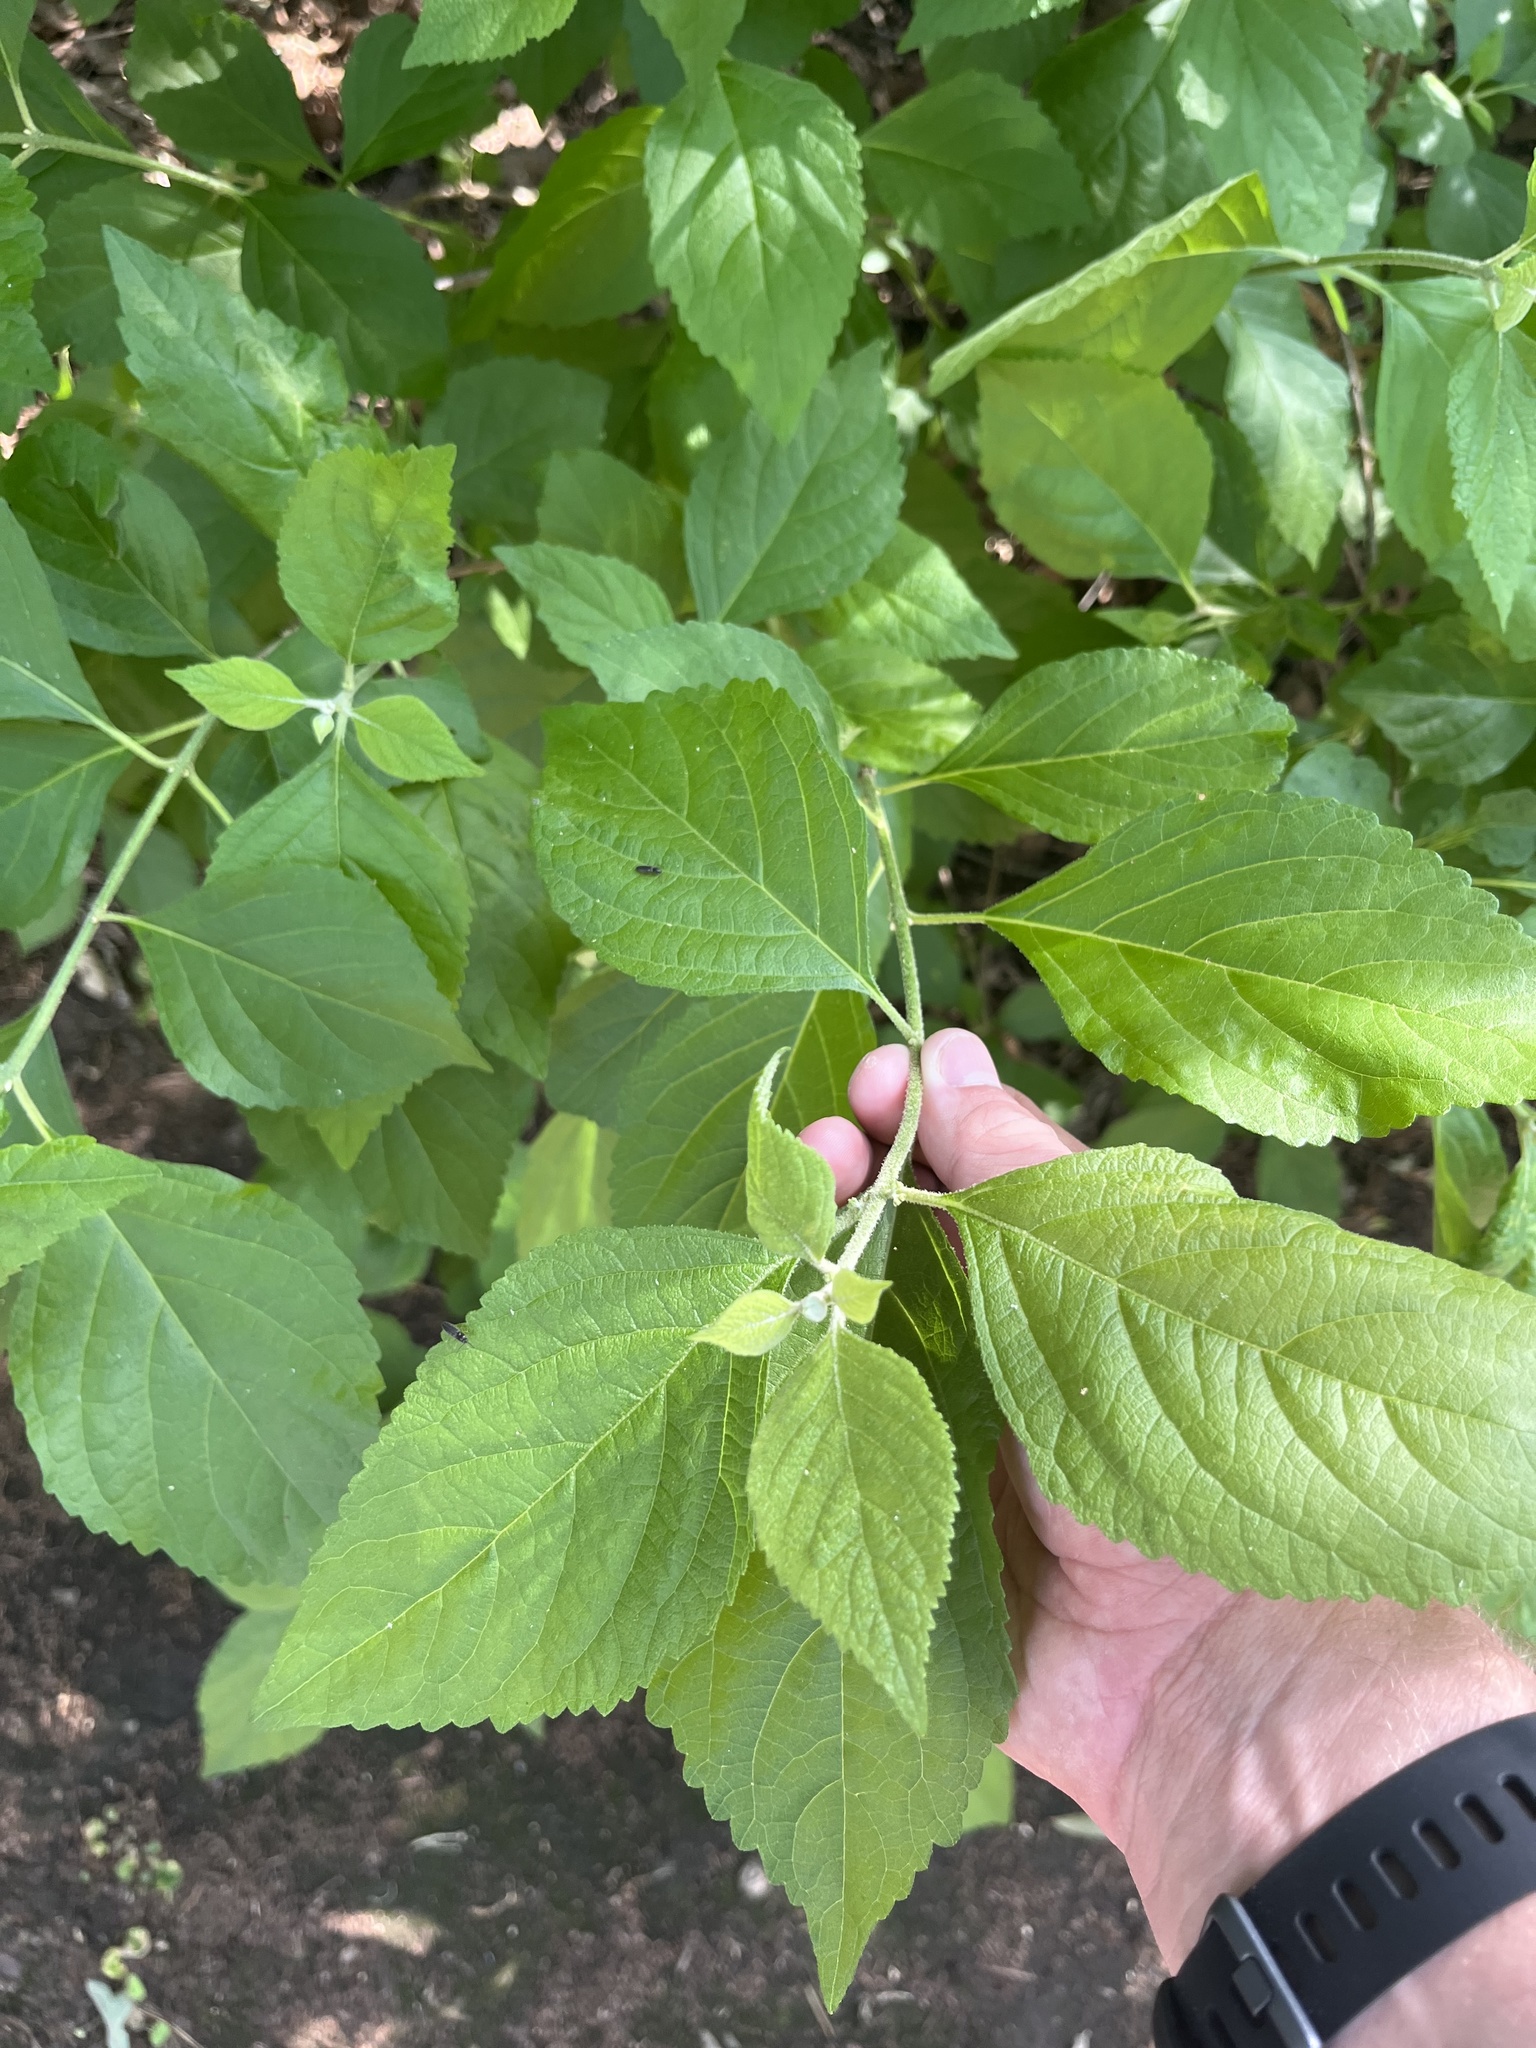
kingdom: Plantae
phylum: Tracheophyta
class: Magnoliopsida
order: Lamiales
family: Lamiaceae
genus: Callicarpa
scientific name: Callicarpa americana
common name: American beautyberry
